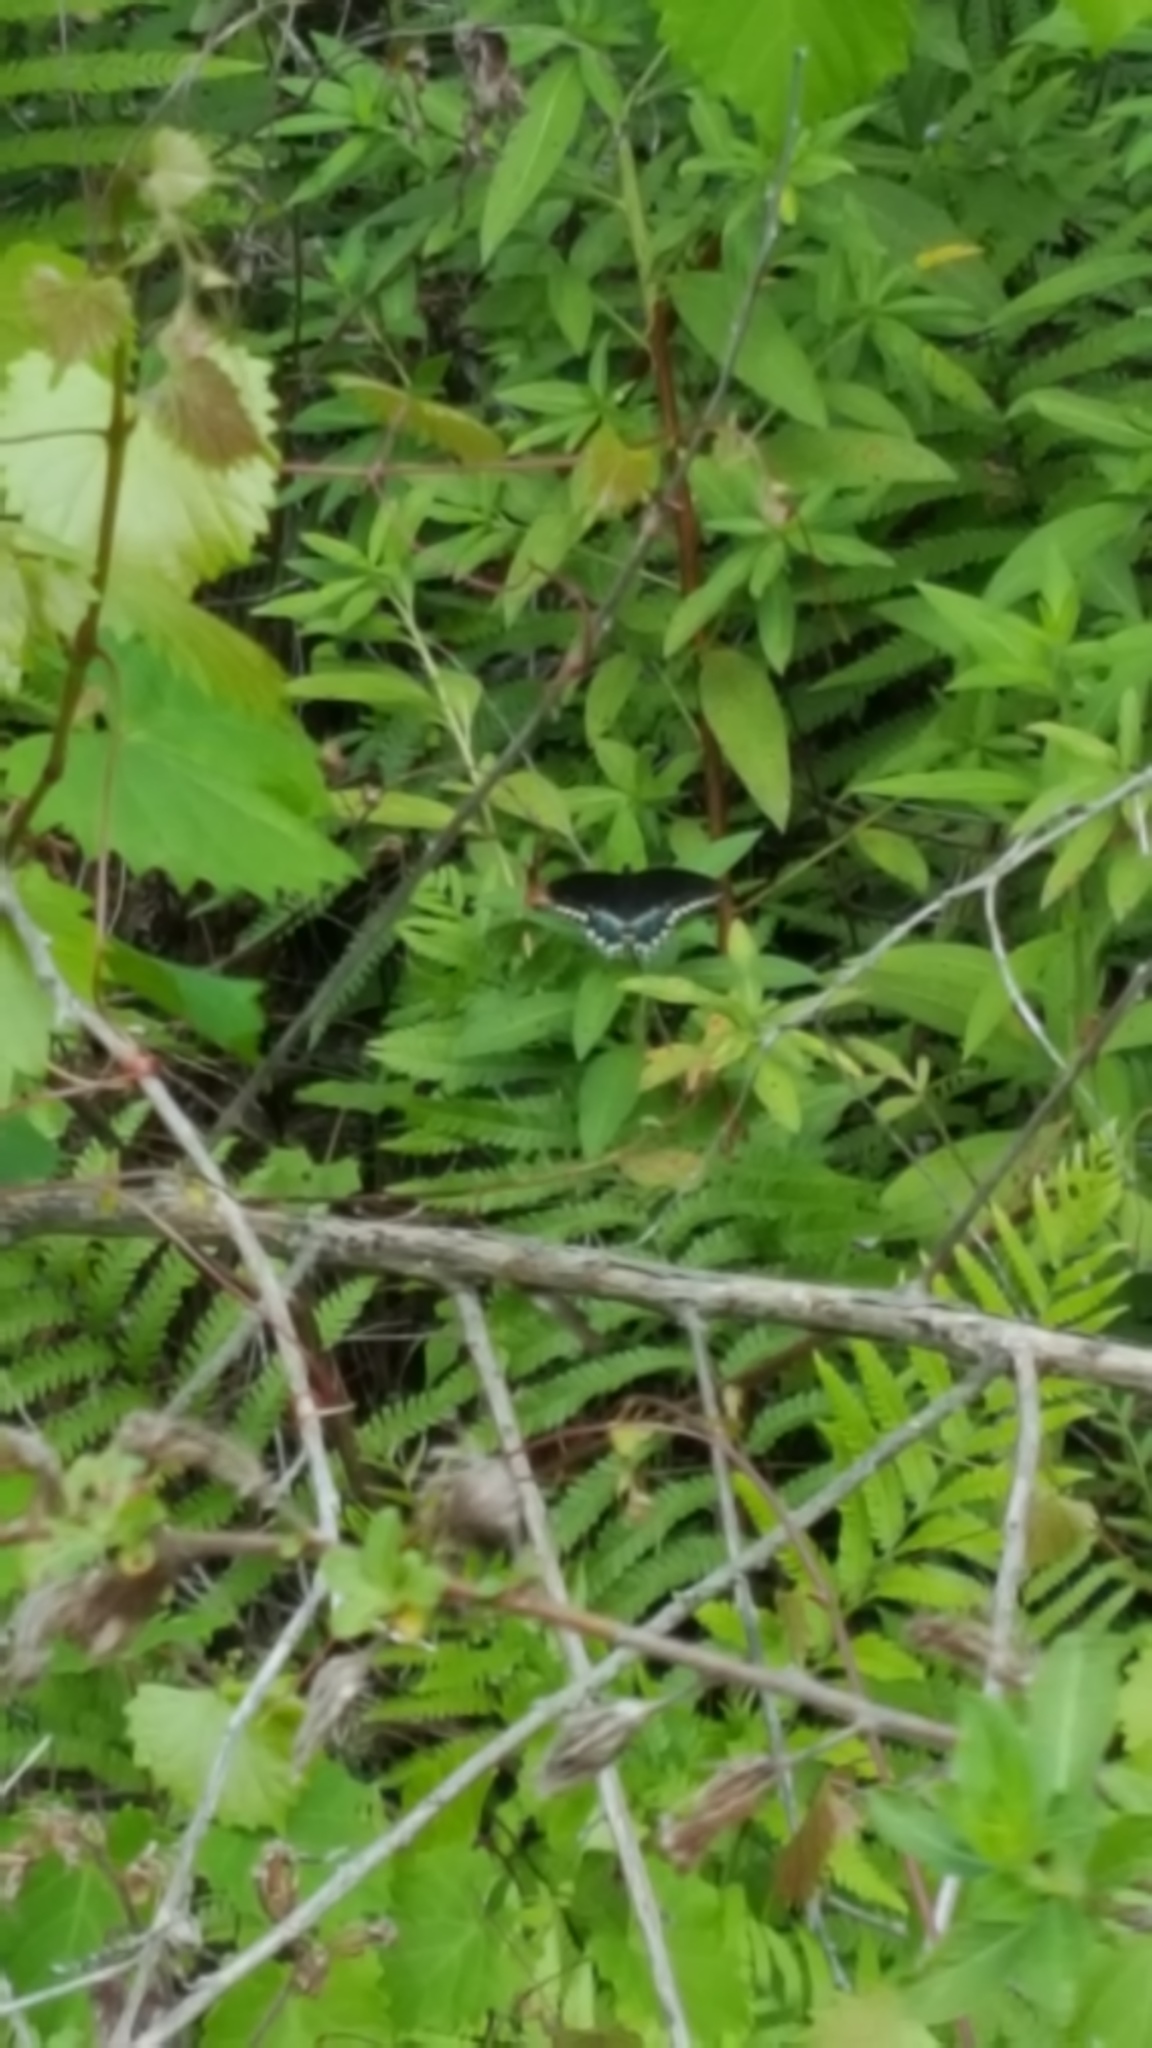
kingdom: Animalia
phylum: Arthropoda
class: Insecta
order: Lepidoptera
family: Papilionidae
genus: Papilio
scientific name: Papilio troilus
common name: Spicebush swallowtail
